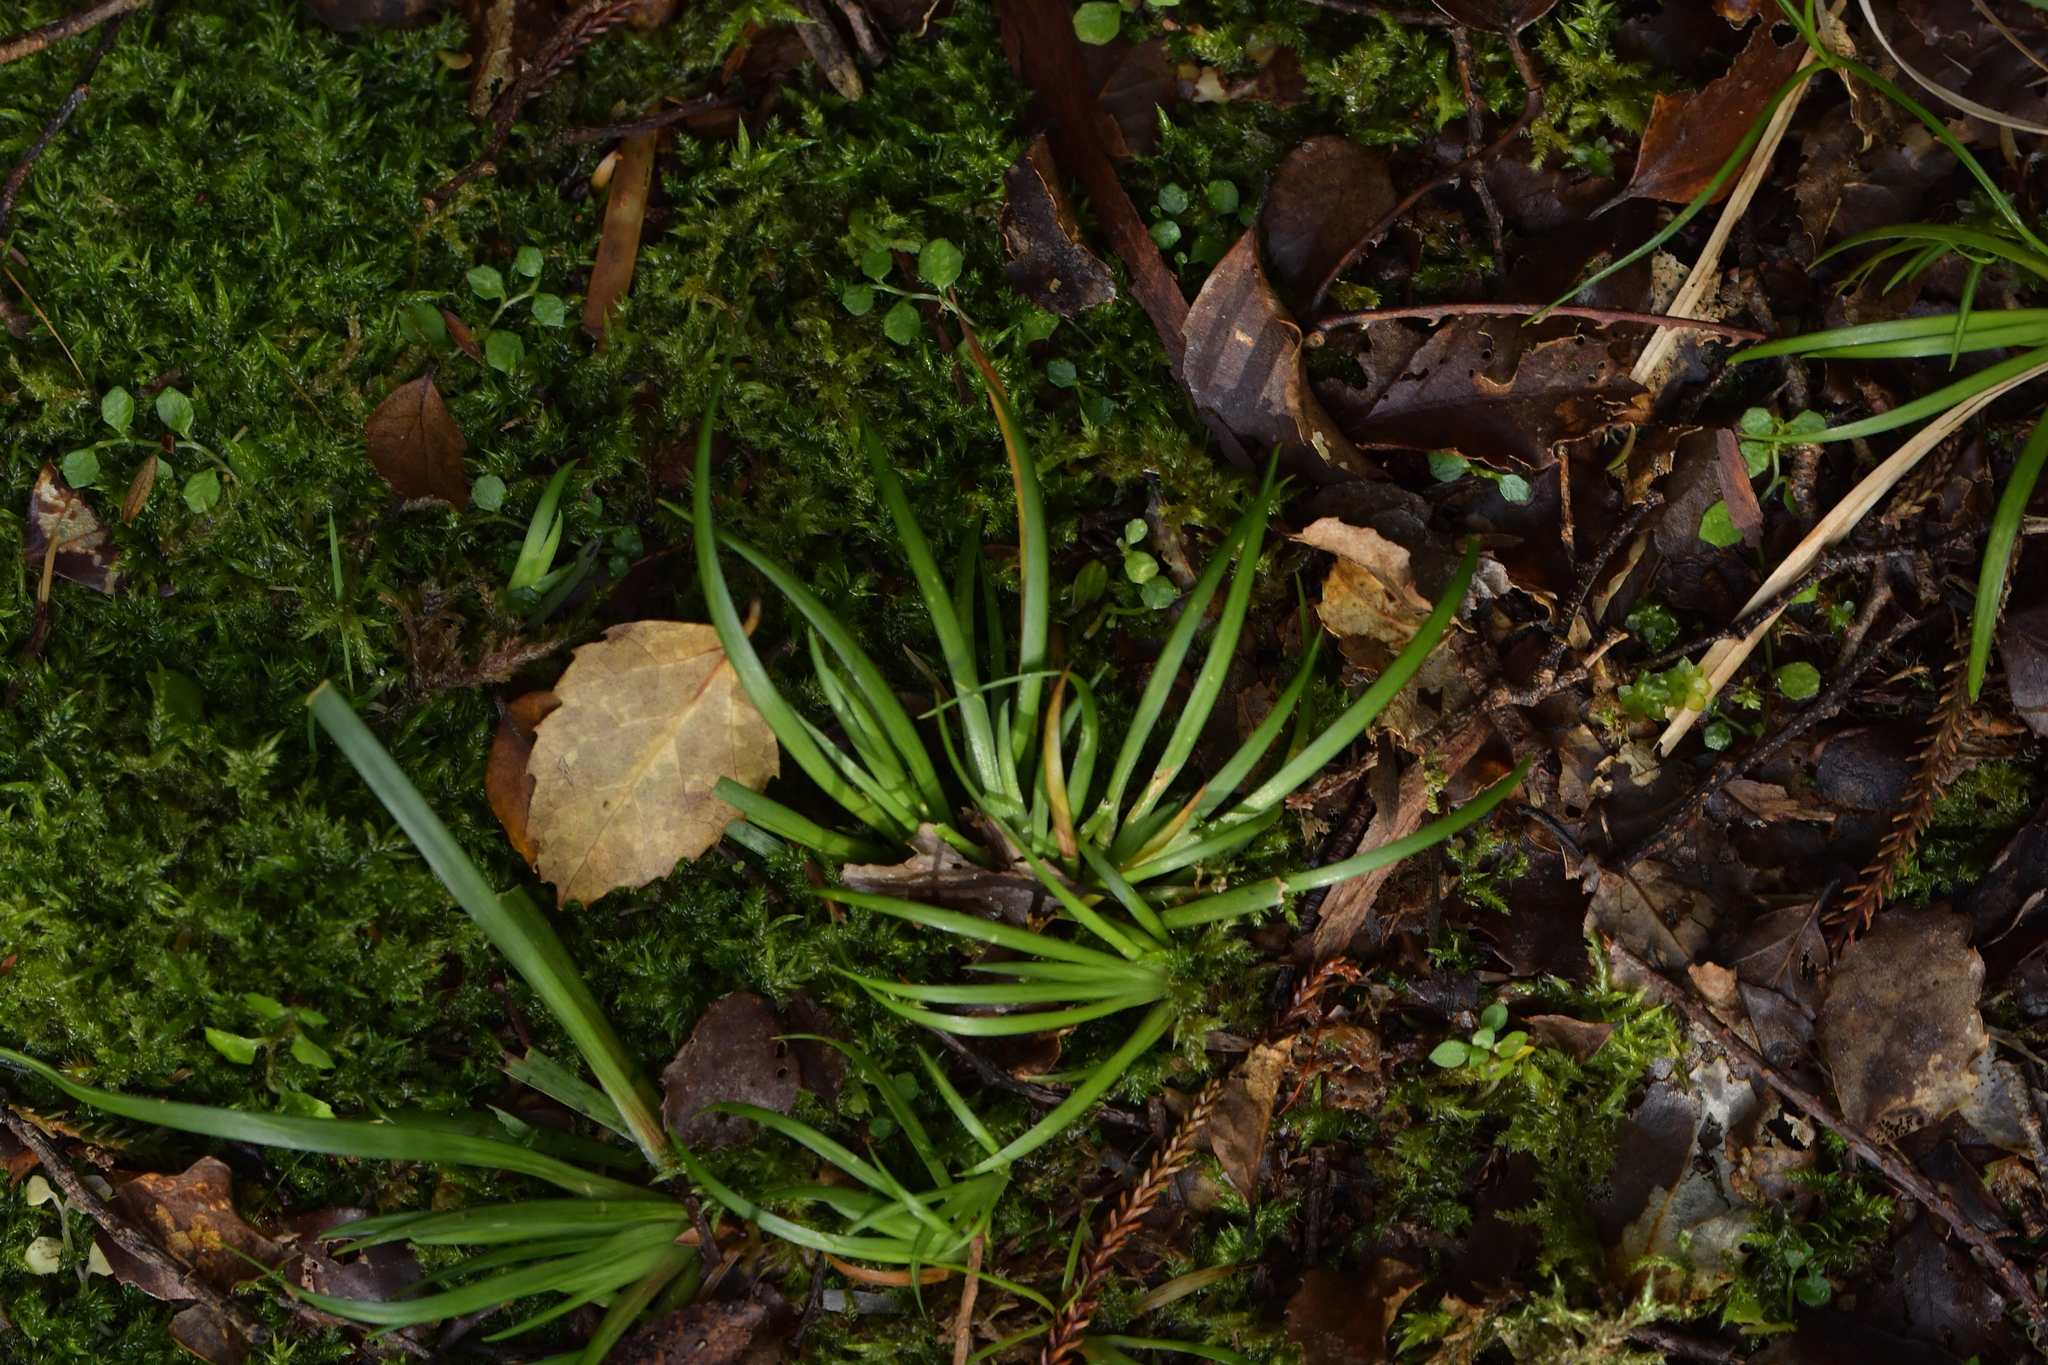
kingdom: Plantae
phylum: Tracheophyta
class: Liliopsida
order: Asparagales
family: Iridaceae
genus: Libertia
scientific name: Libertia micrantha
